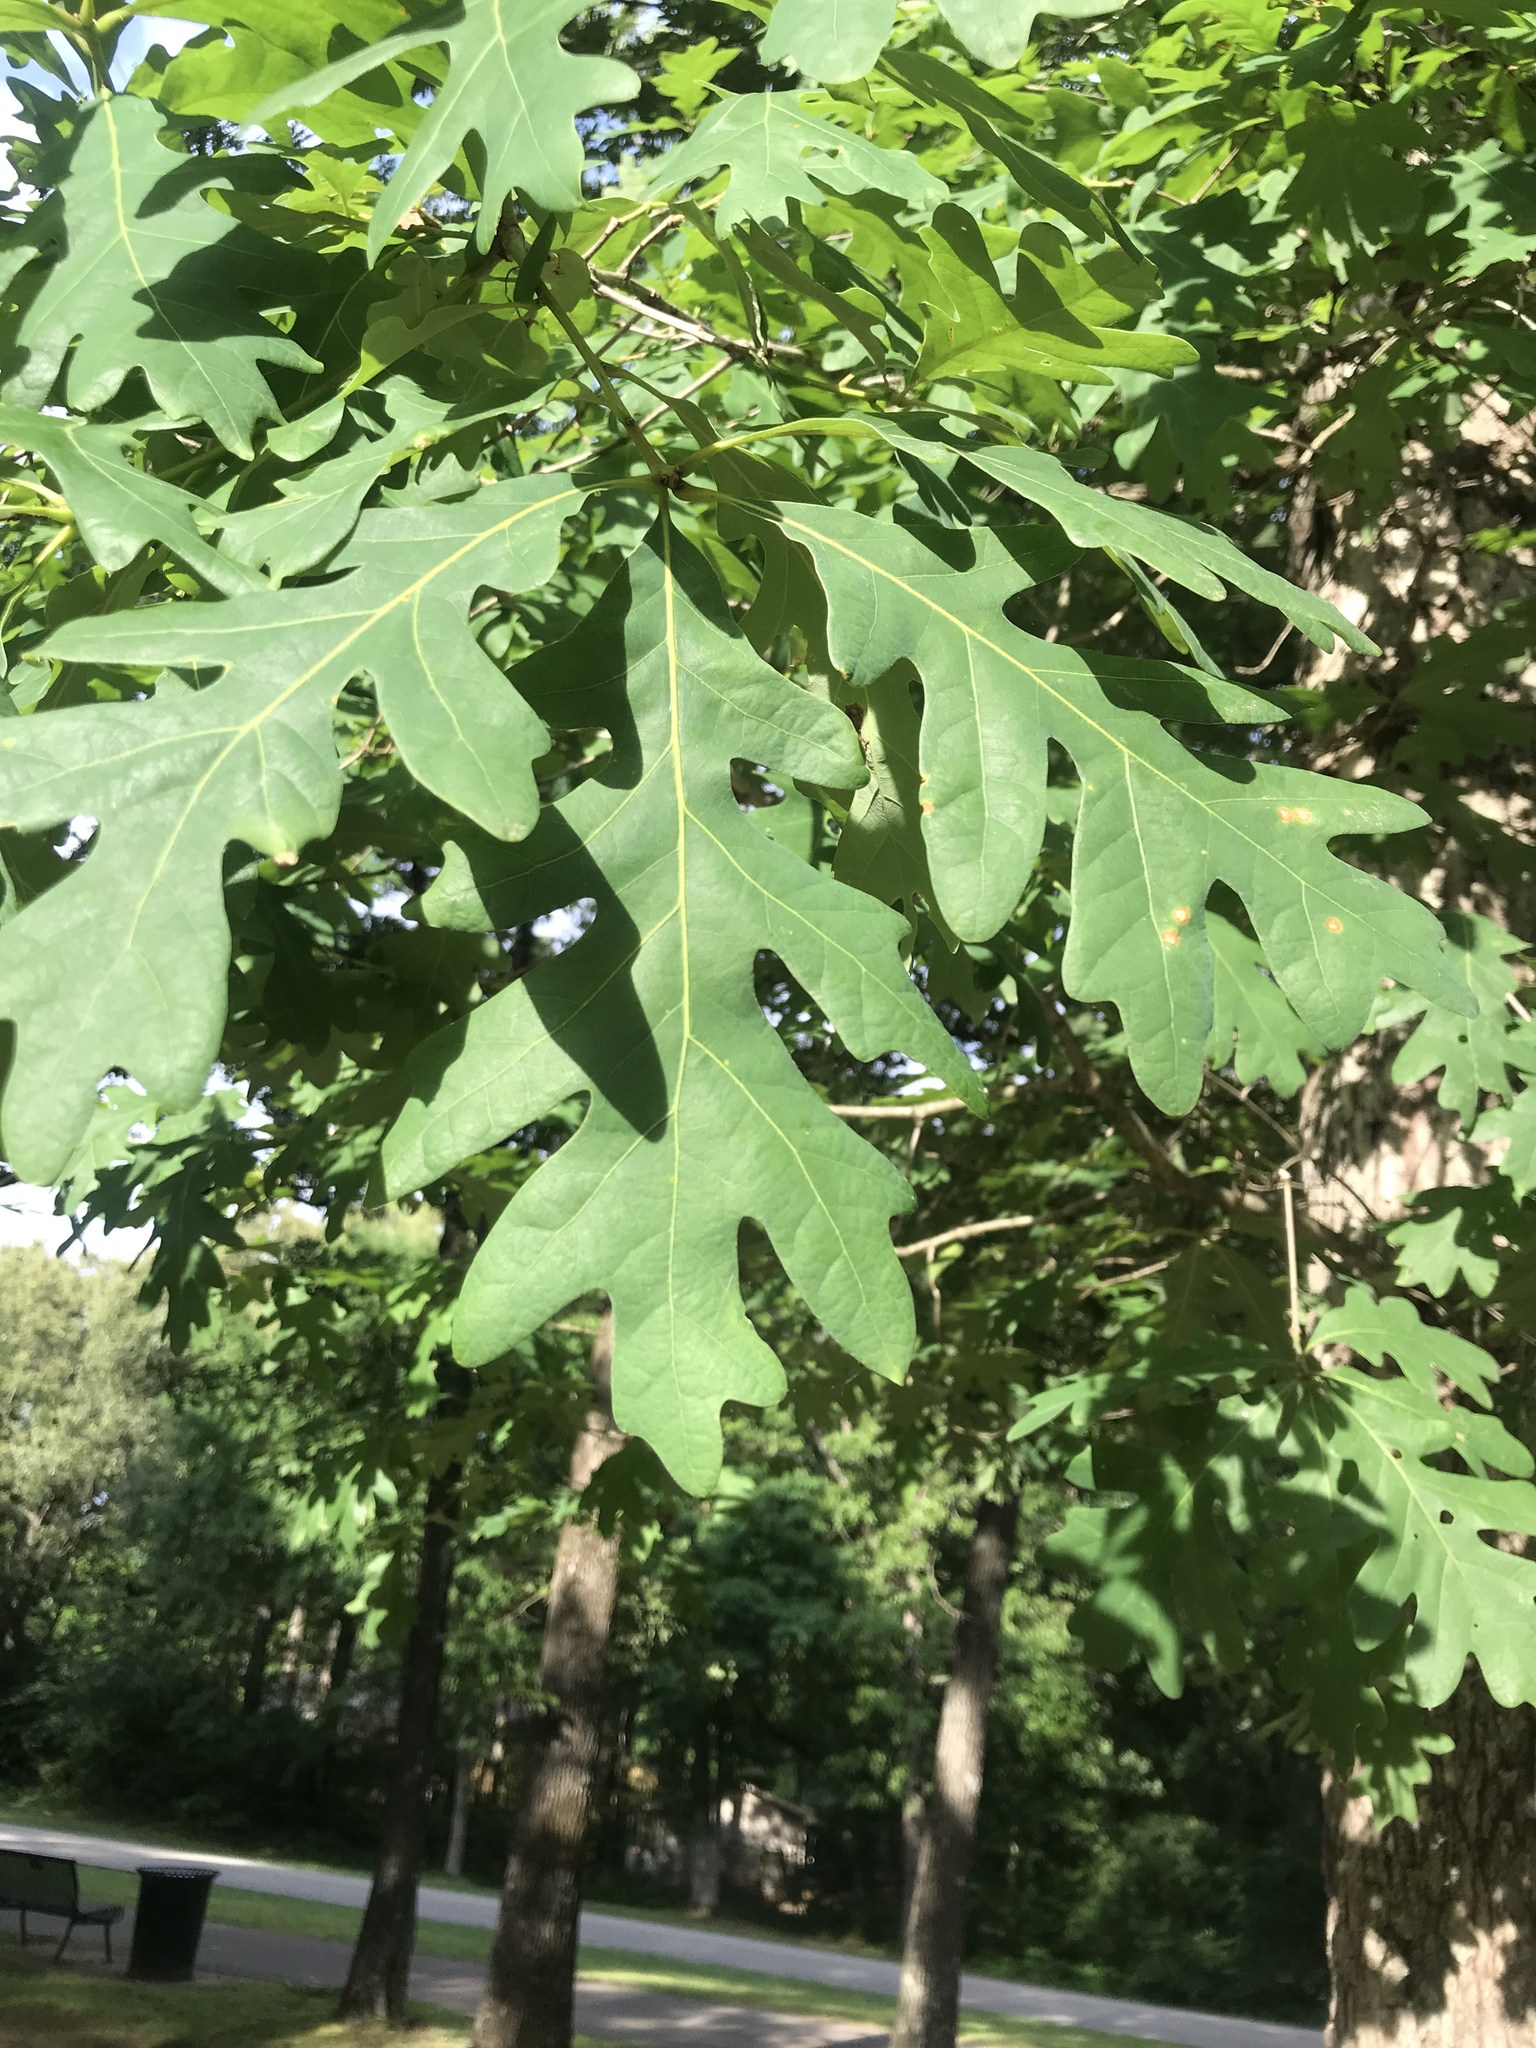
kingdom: Plantae
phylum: Tracheophyta
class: Magnoliopsida
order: Fagales
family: Fagaceae
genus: Quercus
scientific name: Quercus alba
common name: White oak
